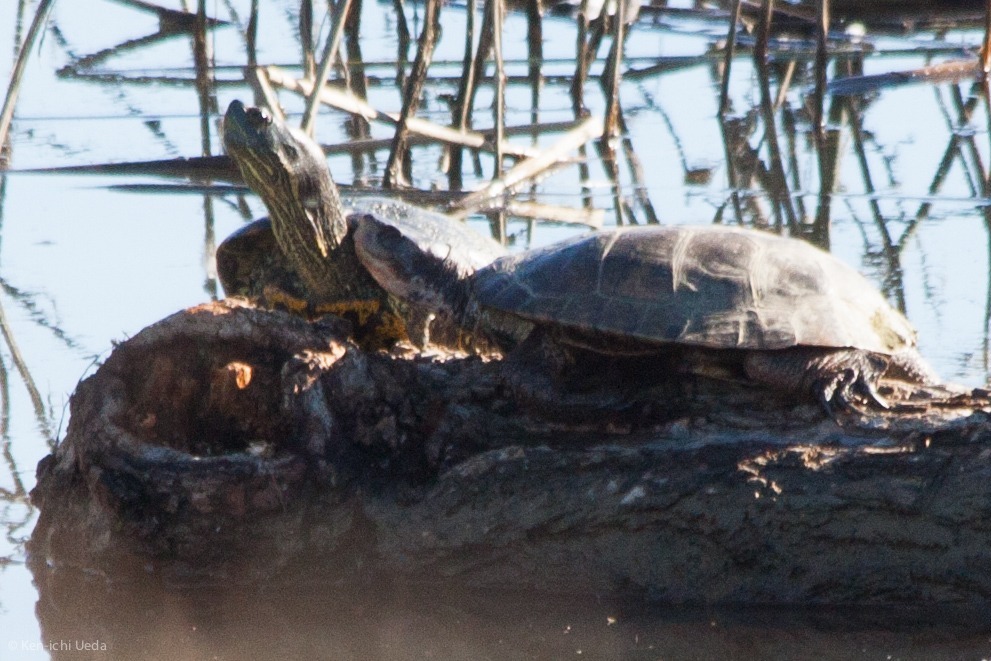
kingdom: Animalia
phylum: Chordata
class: Testudines
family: Emydidae
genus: Actinemys
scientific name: Actinemys marmorata
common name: Western pond turtle
